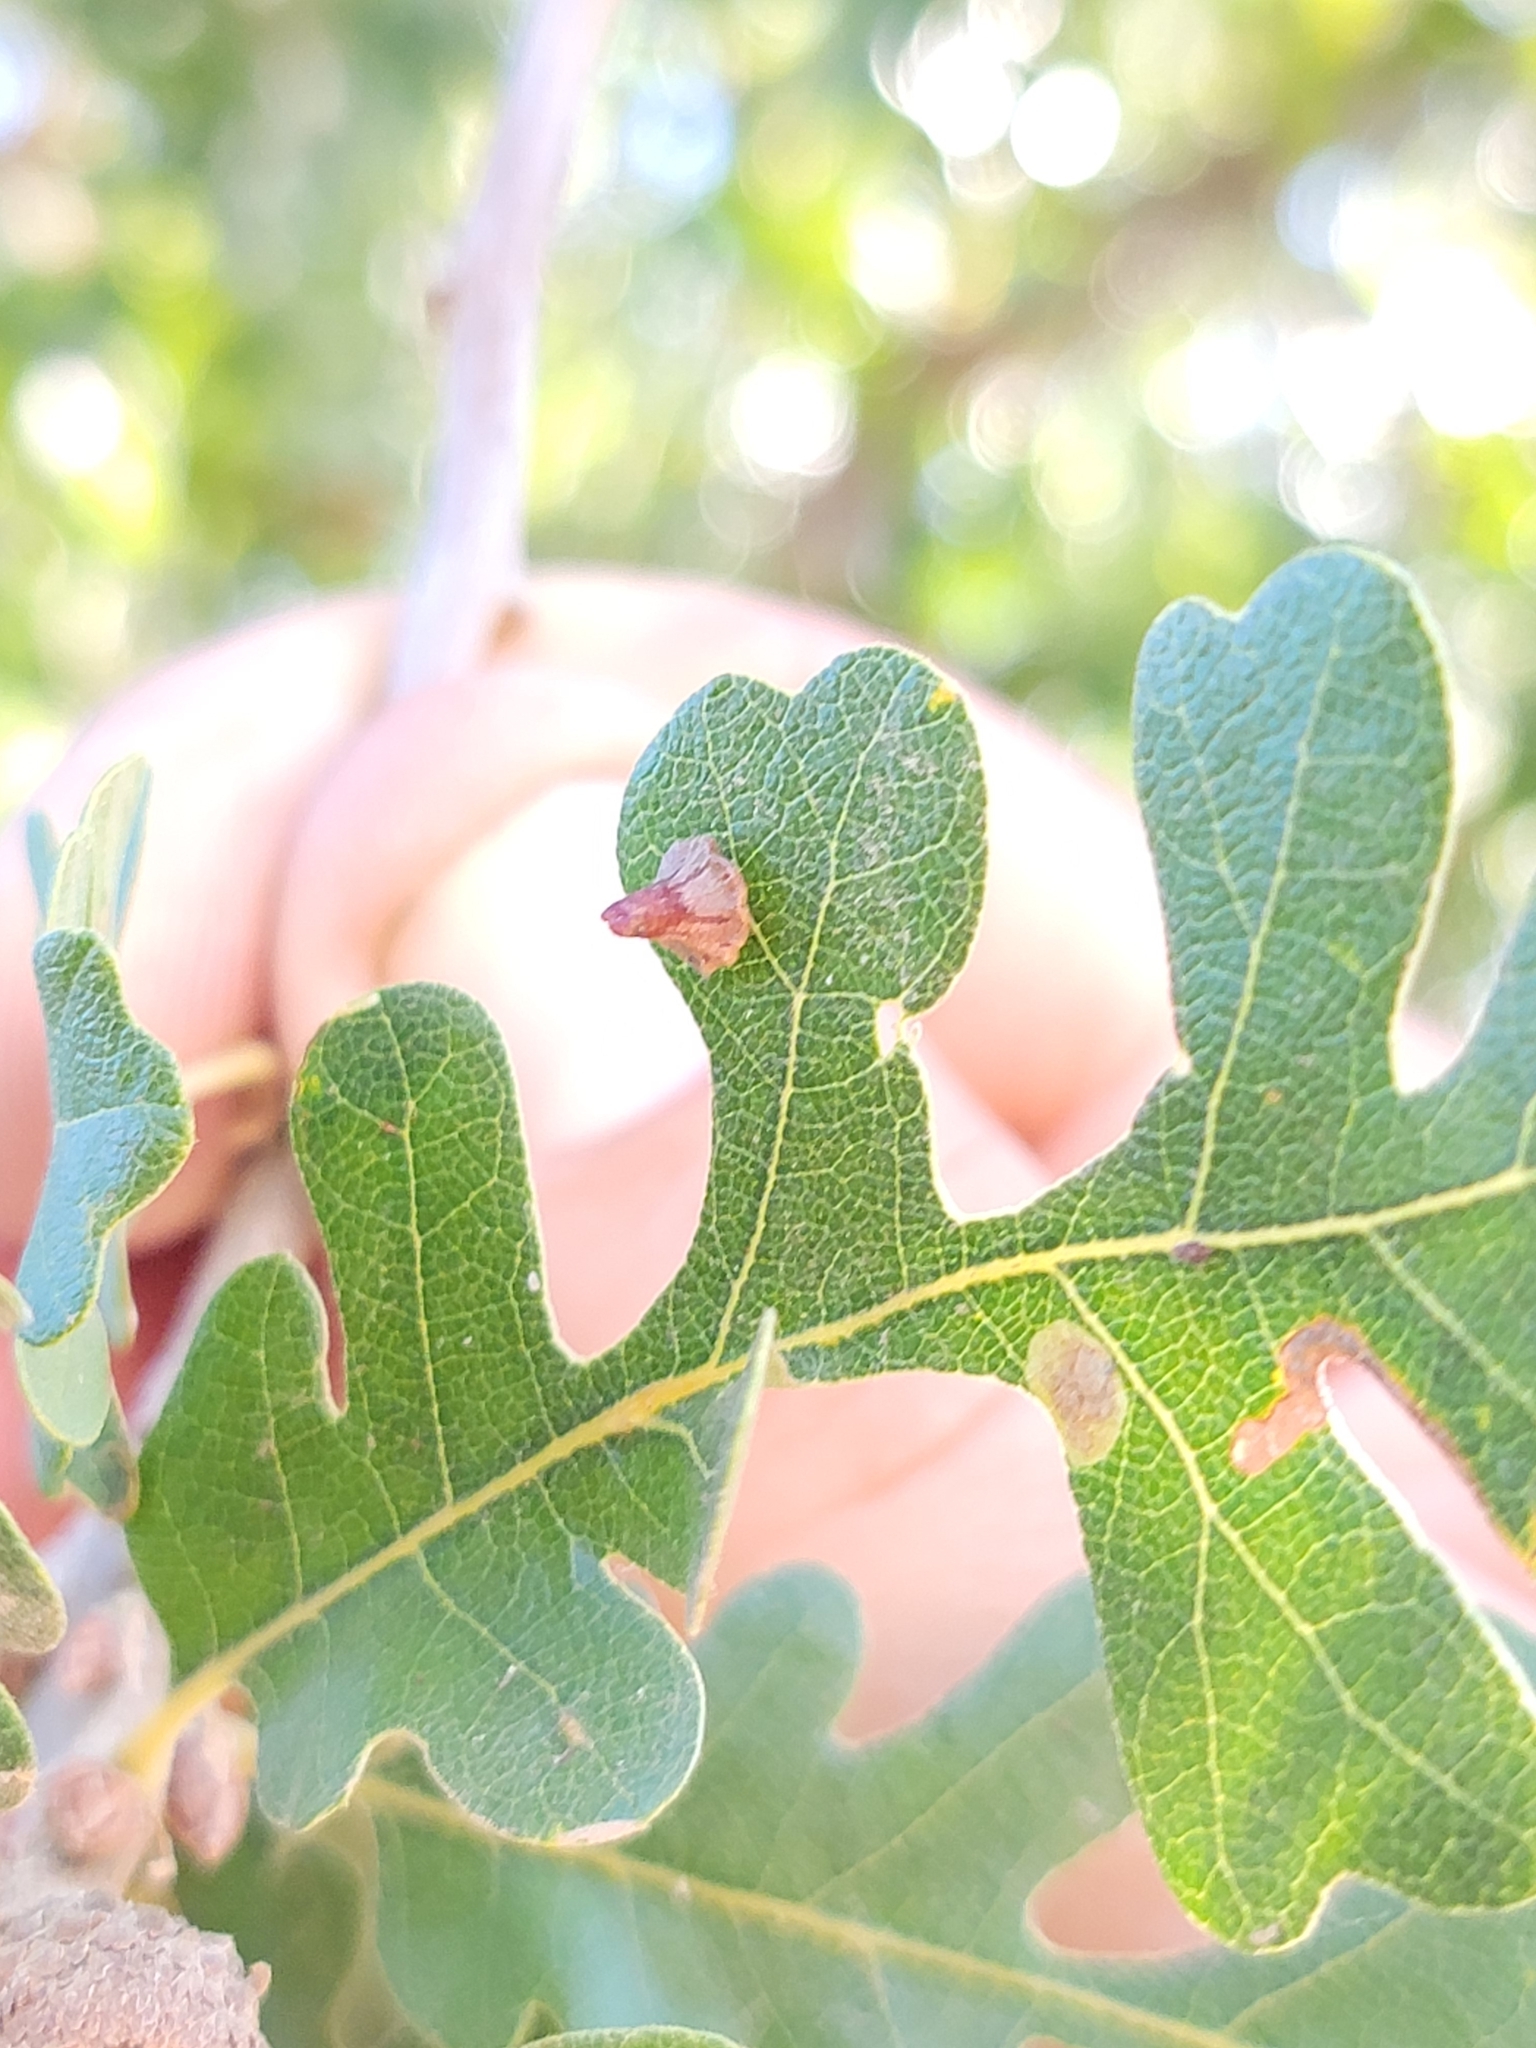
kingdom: Animalia
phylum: Arthropoda
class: Insecta
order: Hymenoptera
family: Cynipidae
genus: Andricus
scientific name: Andricus
